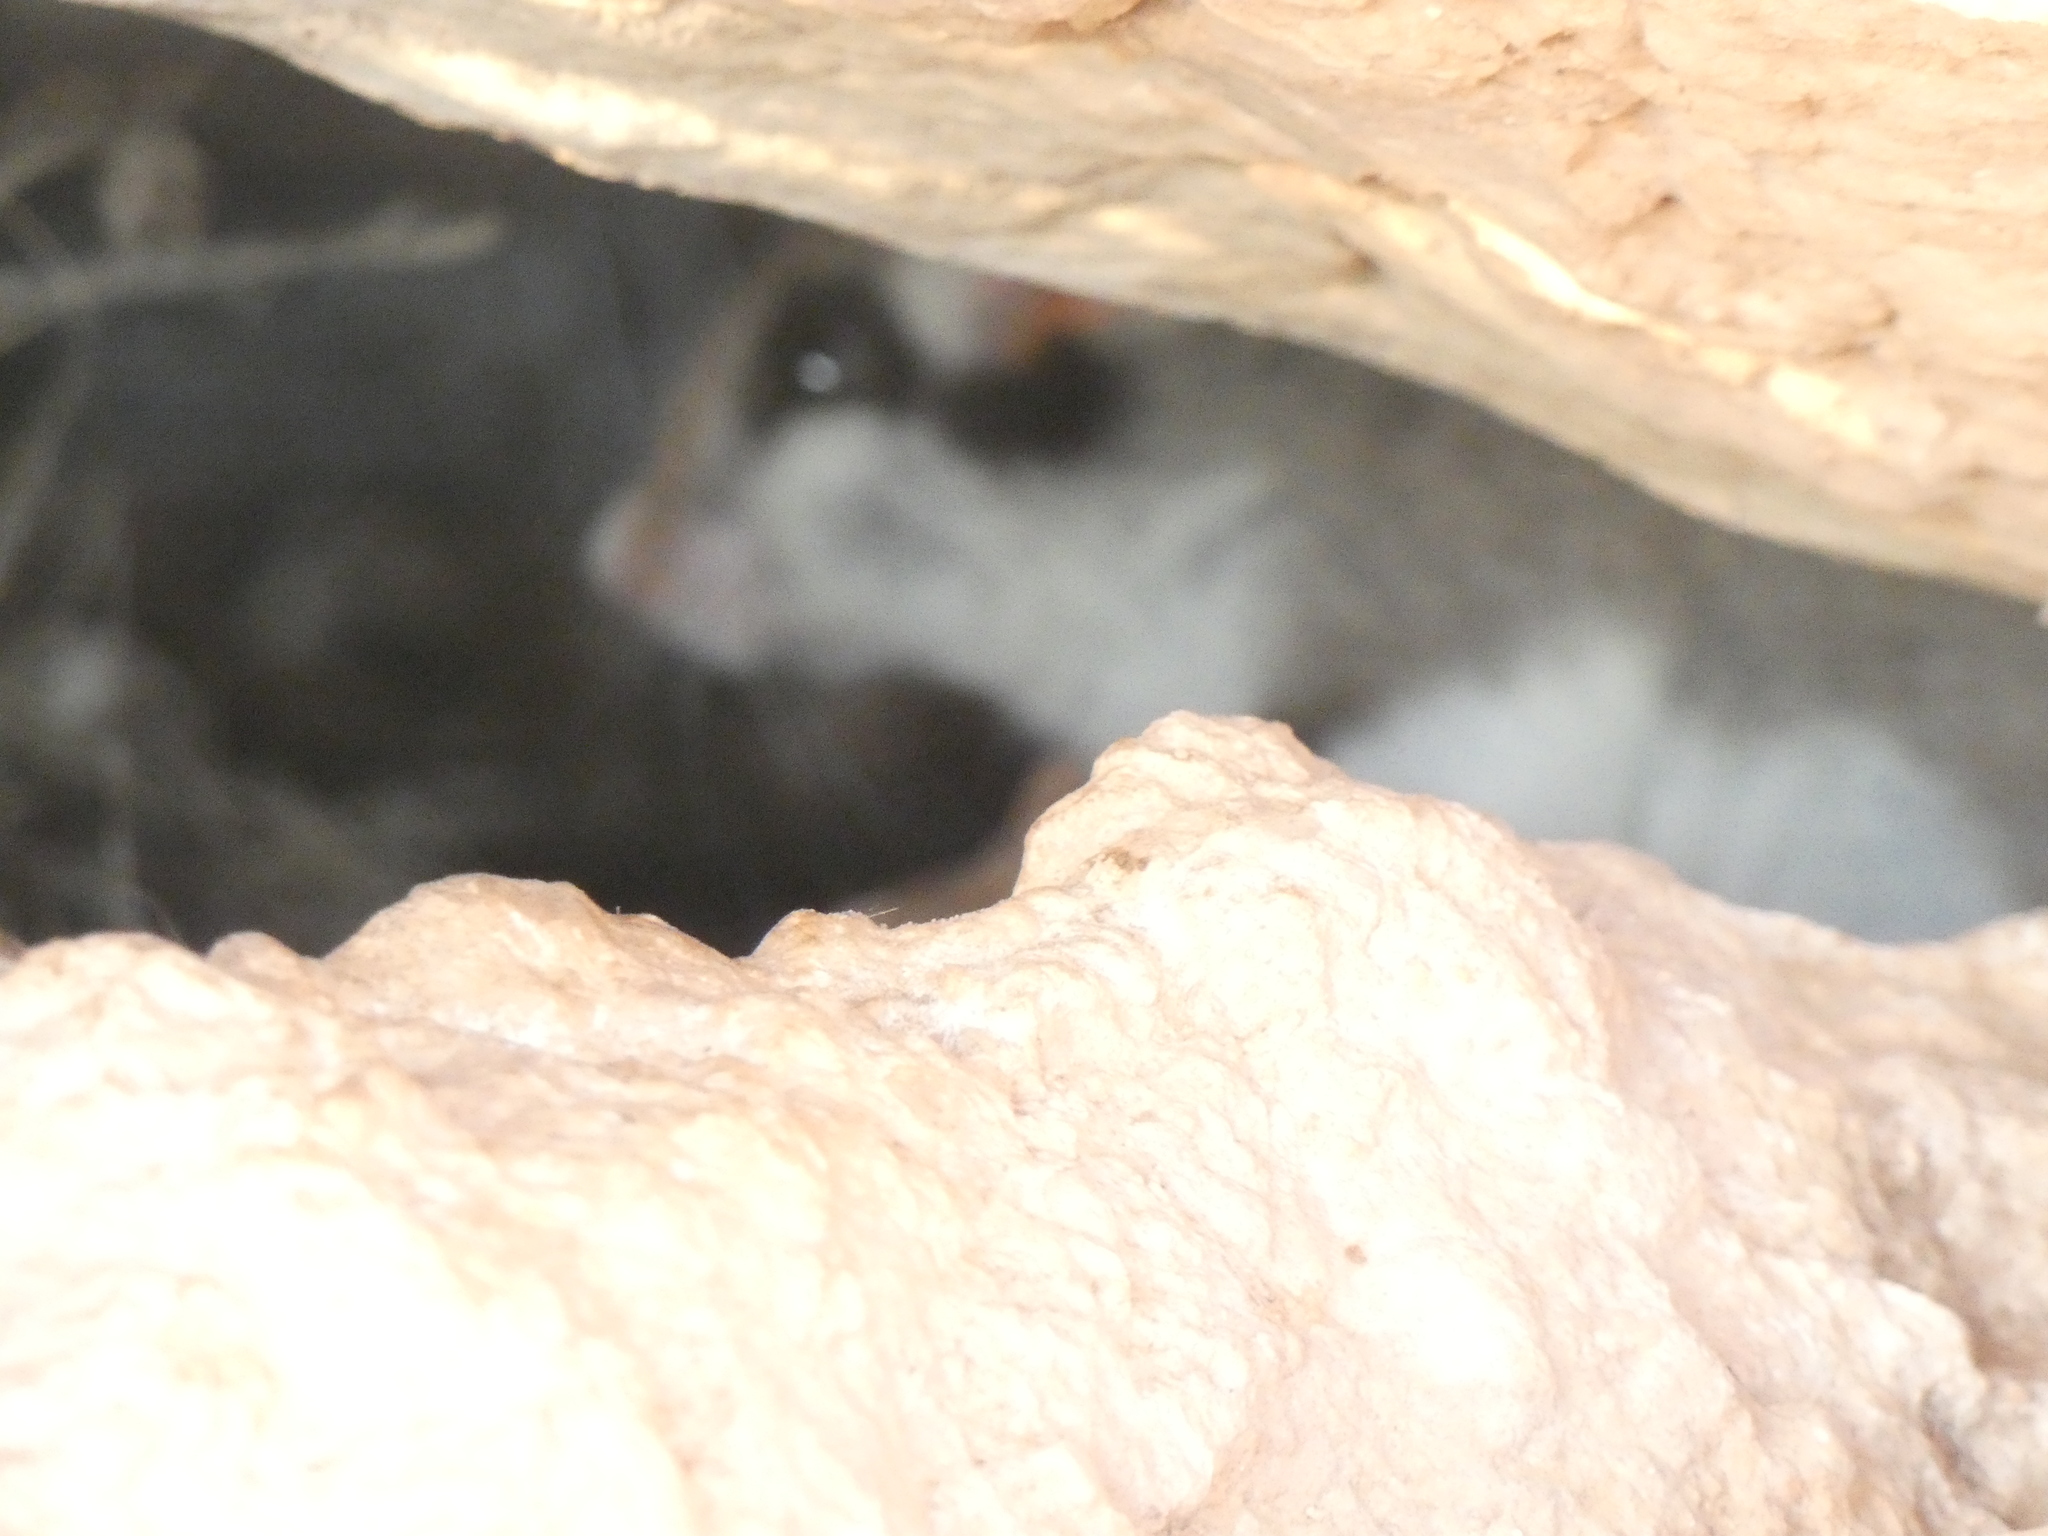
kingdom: Animalia
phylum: Chordata
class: Mammalia
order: Rodentia
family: Gliridae
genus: Eliomys
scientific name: Eliomys quercinus
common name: Garden dormouse
